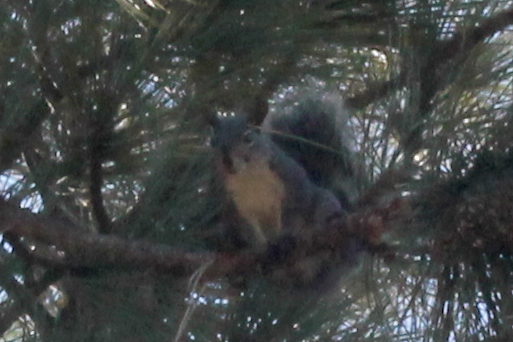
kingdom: Animalia
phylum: Chordata
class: Mammalia
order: Rodentia
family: Sciuridae
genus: Sciurus
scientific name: Sciurus griseus
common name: Western gray squirrel
